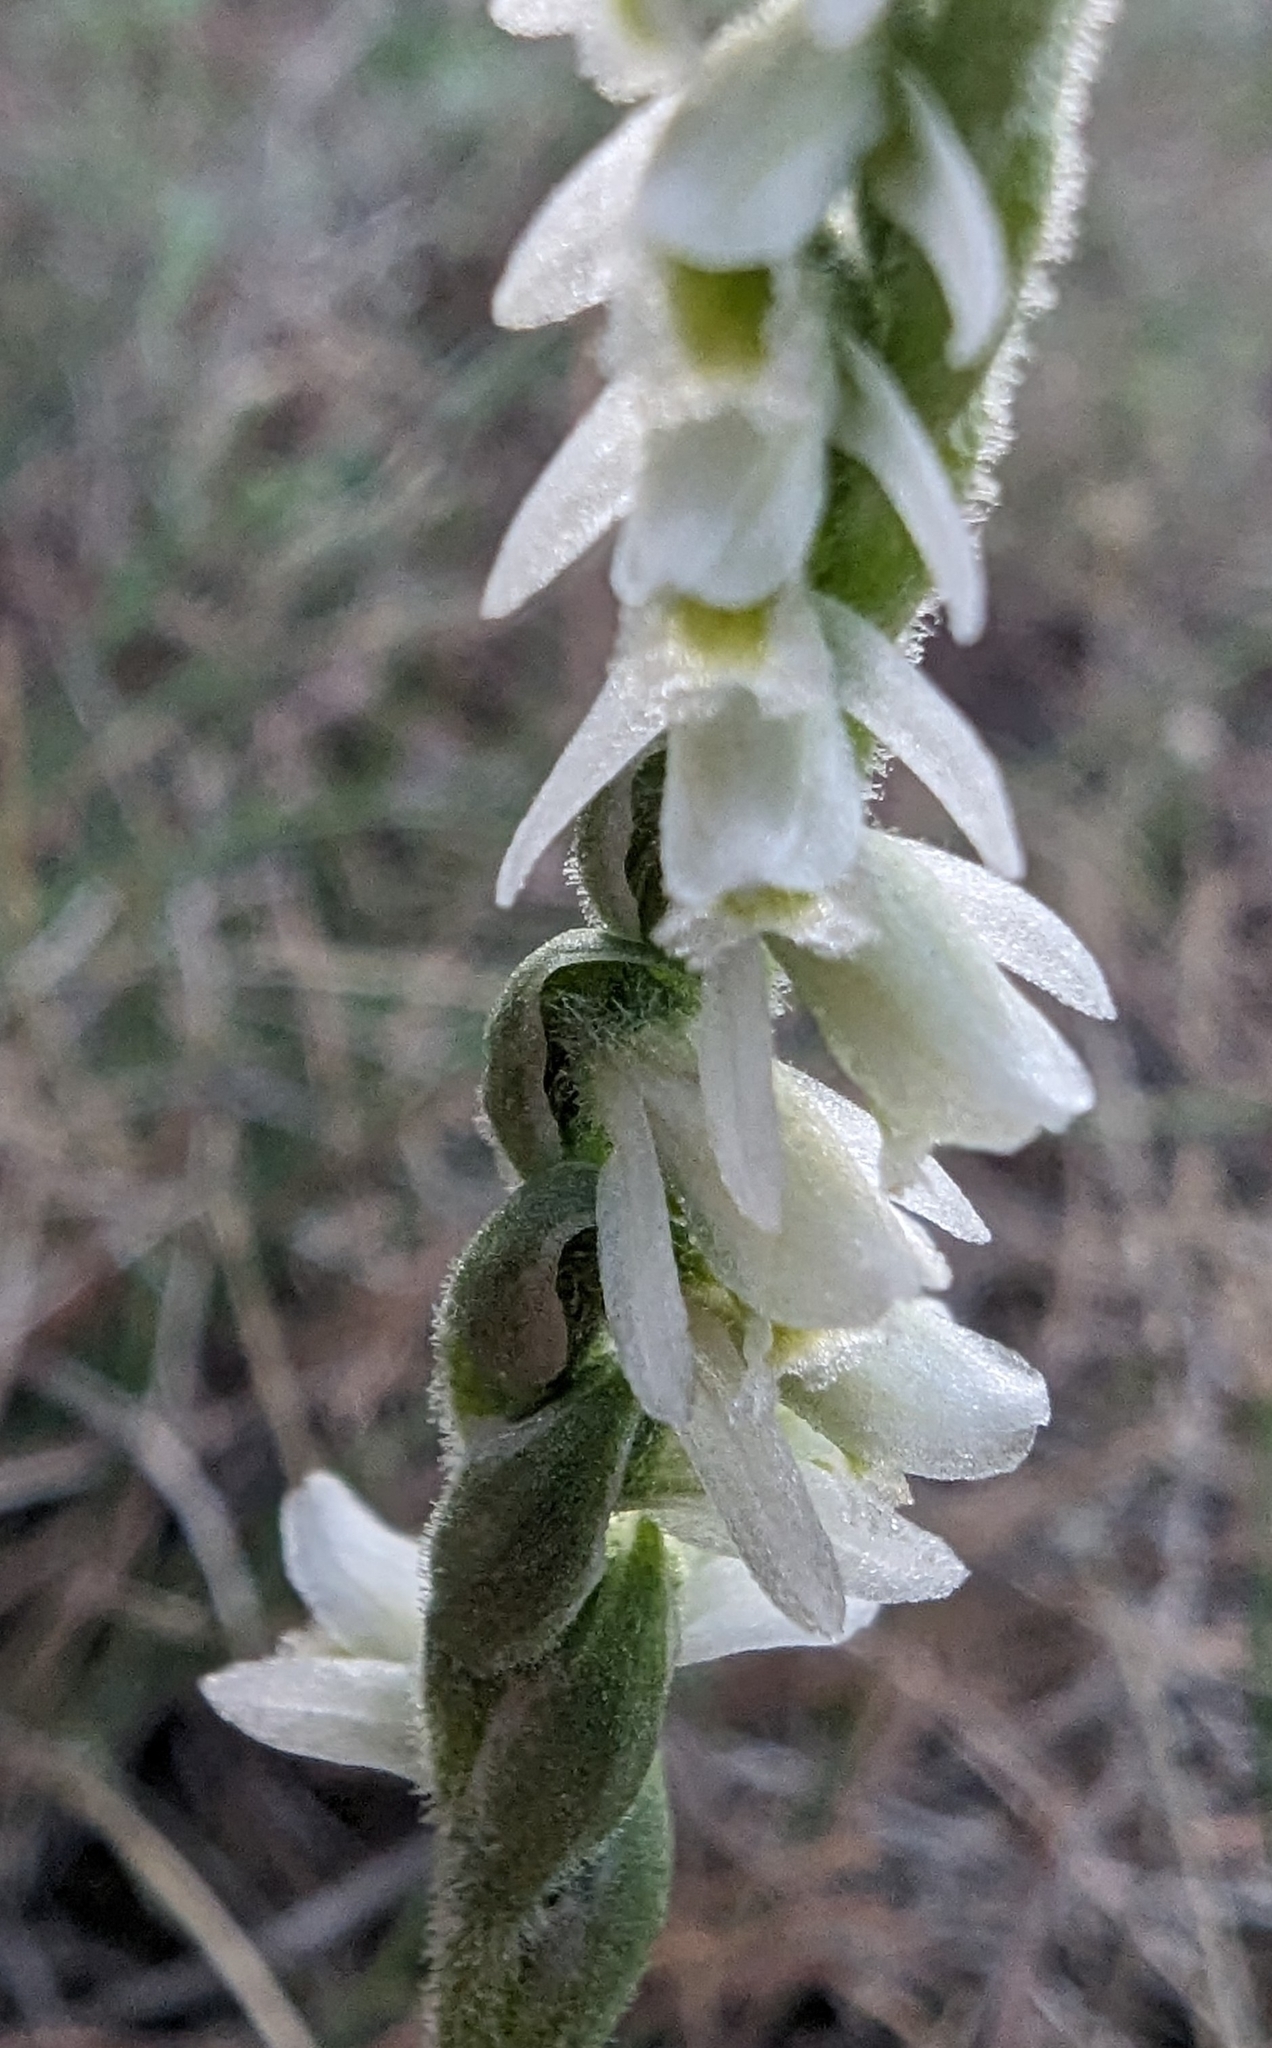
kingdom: Plantae
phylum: Tracheophyta
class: Liliopsida
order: Asparagales
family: Orchidaceae
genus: Spiranthes
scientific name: Spiranthes spiralis
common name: Autumn lady's-tresses
